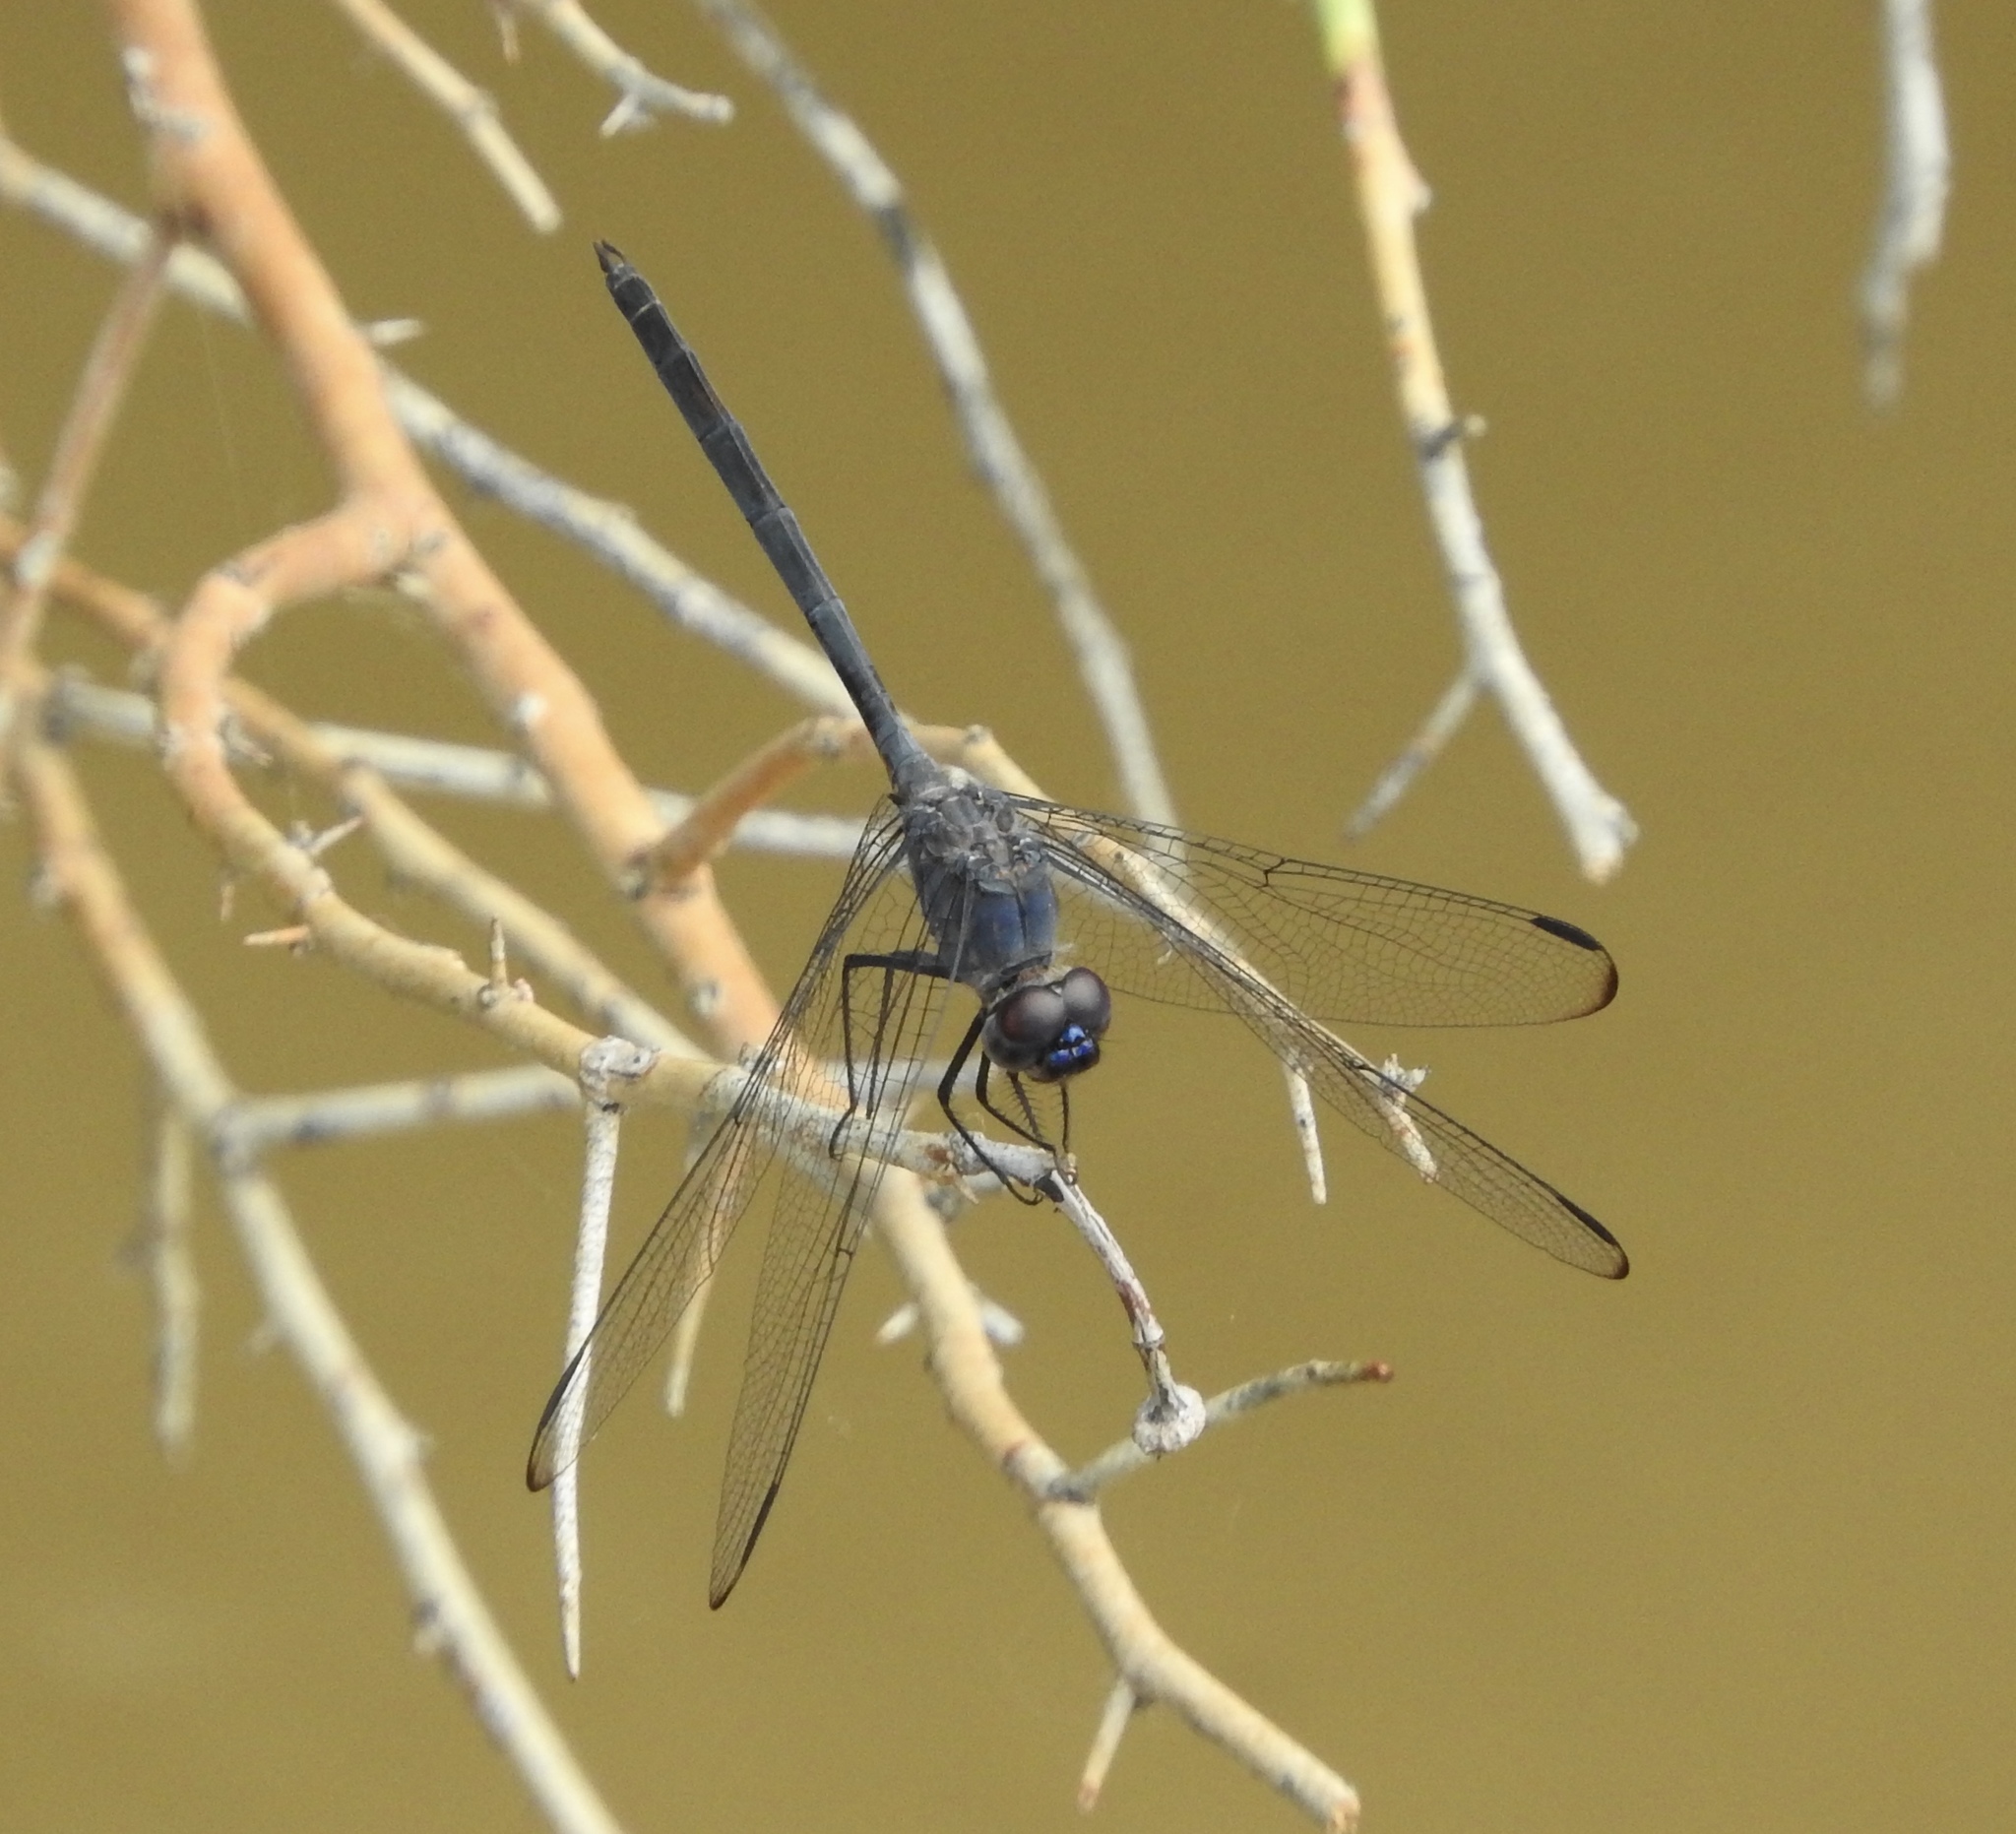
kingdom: Animalia
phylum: Arthropoda
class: Insecta
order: Odonata
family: Libellulidae
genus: Dythemis
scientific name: Dythemis nigrescens
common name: Black setwing
